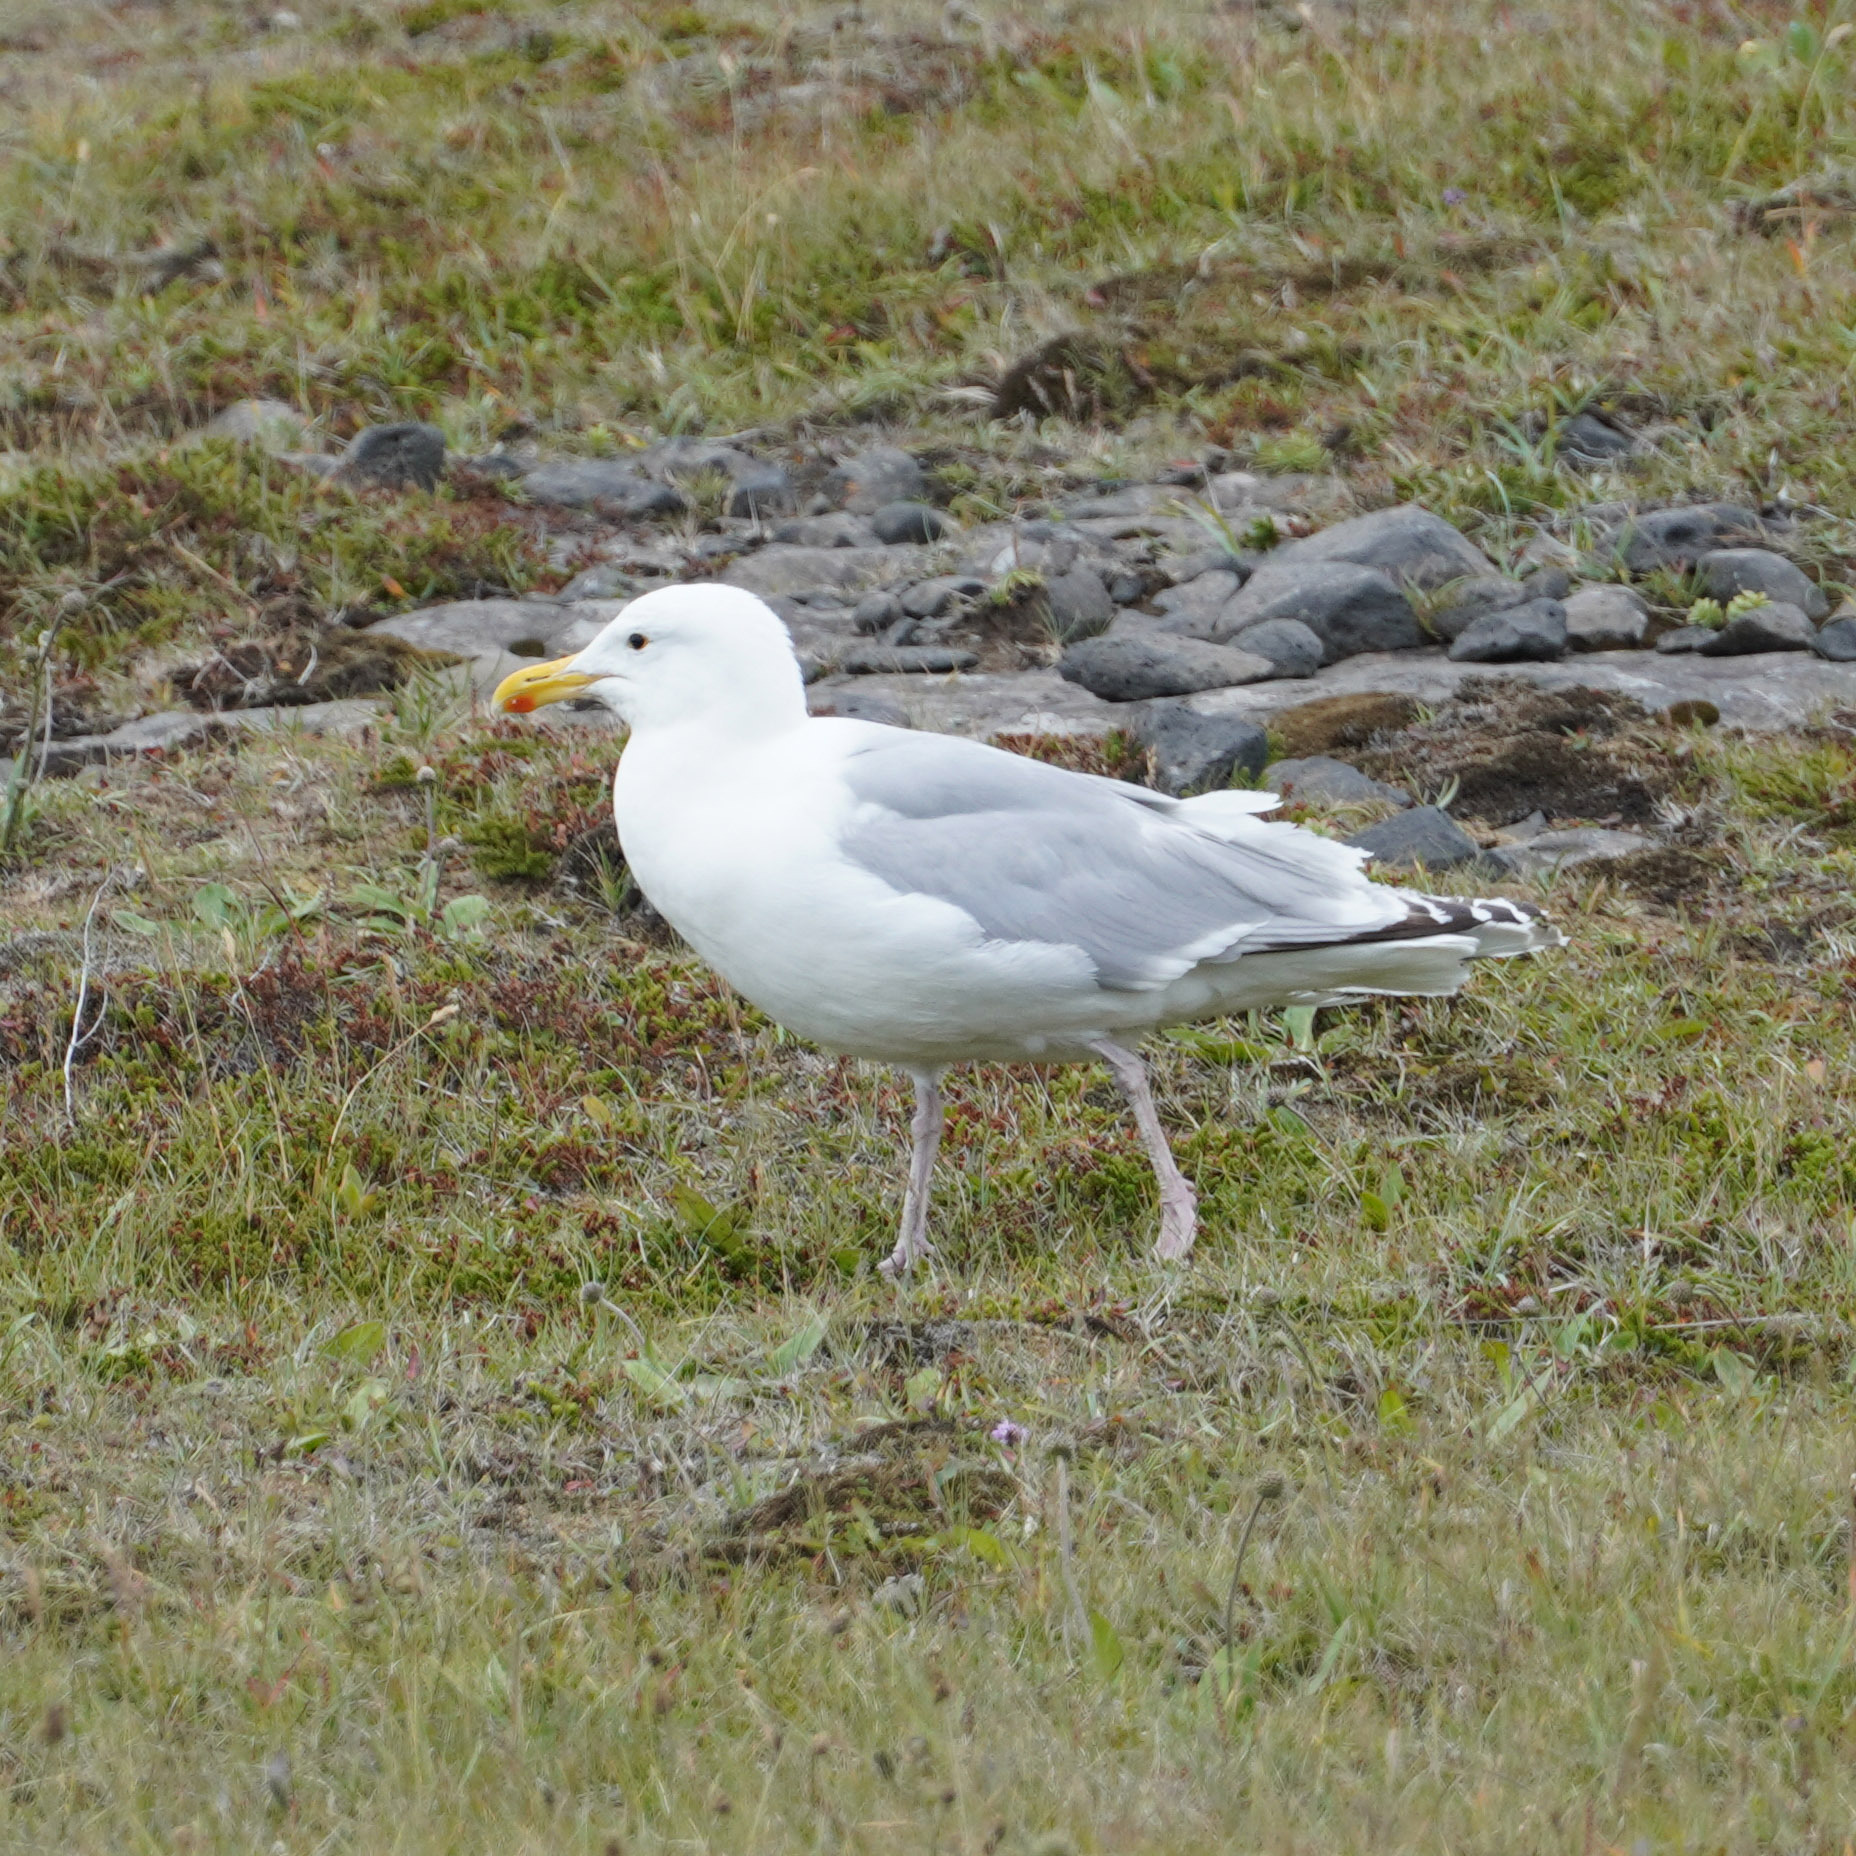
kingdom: Animalia
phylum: Chordata
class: Aves
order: Charadriiformes
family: Laridae
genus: Larus
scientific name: Larus argentatus
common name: Herring gull
